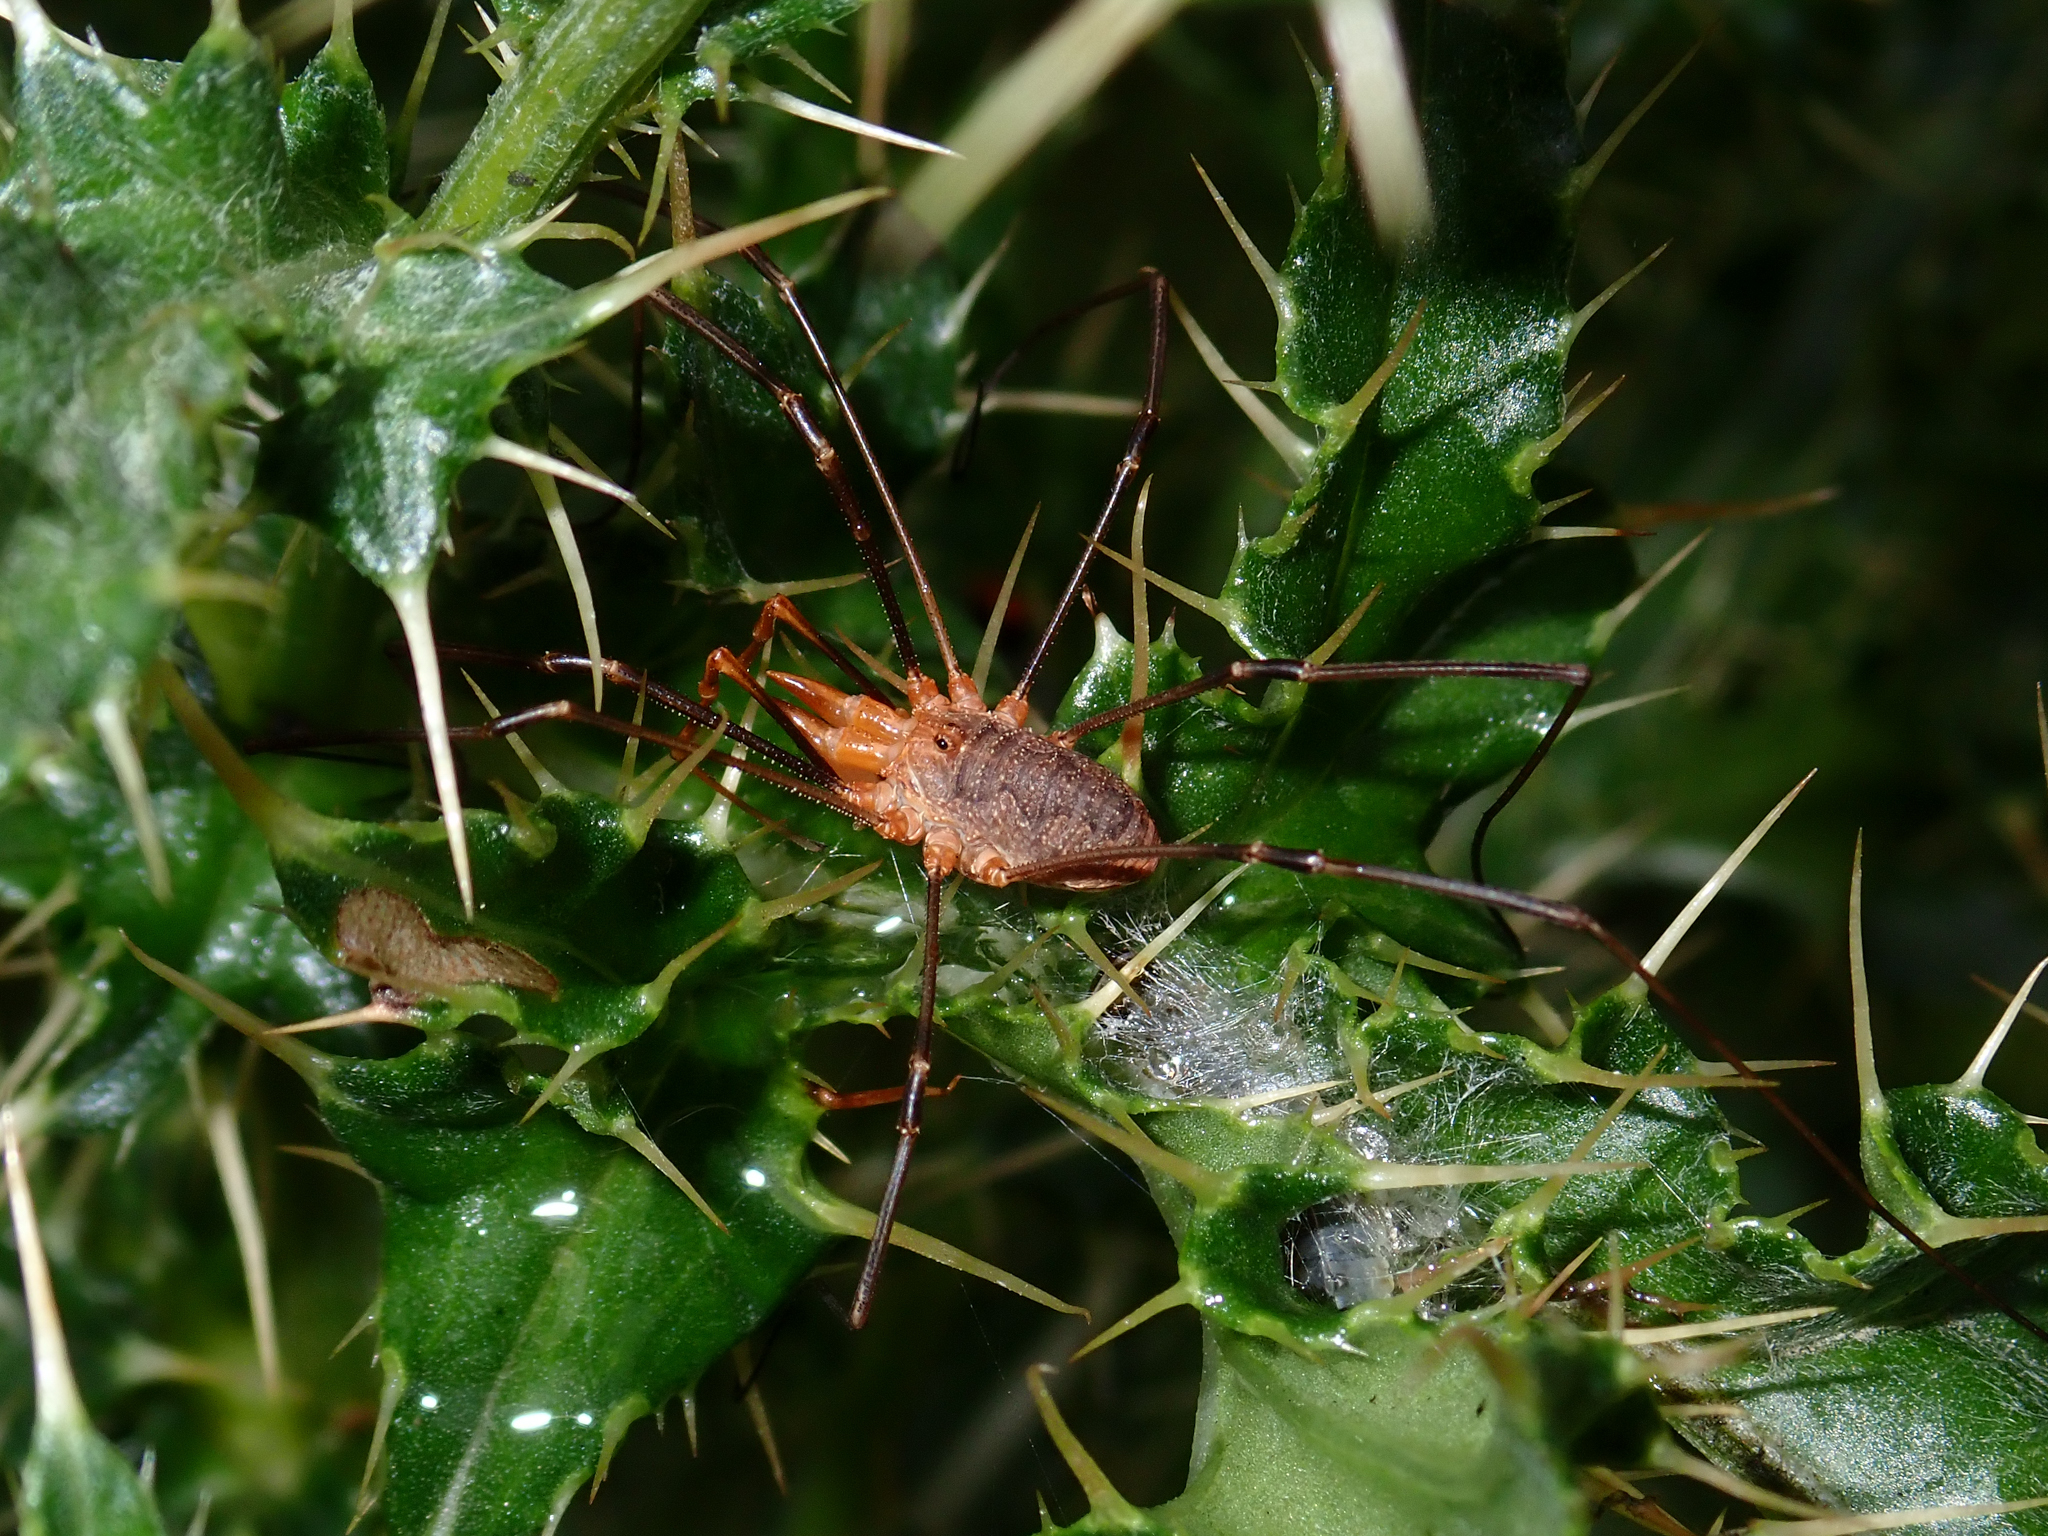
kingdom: Animalia
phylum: Arthropoda
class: Arachnida
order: Opiliones
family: Phalangiidae
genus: Phalangium
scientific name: Phalangium opilio
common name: Daddy longleg
